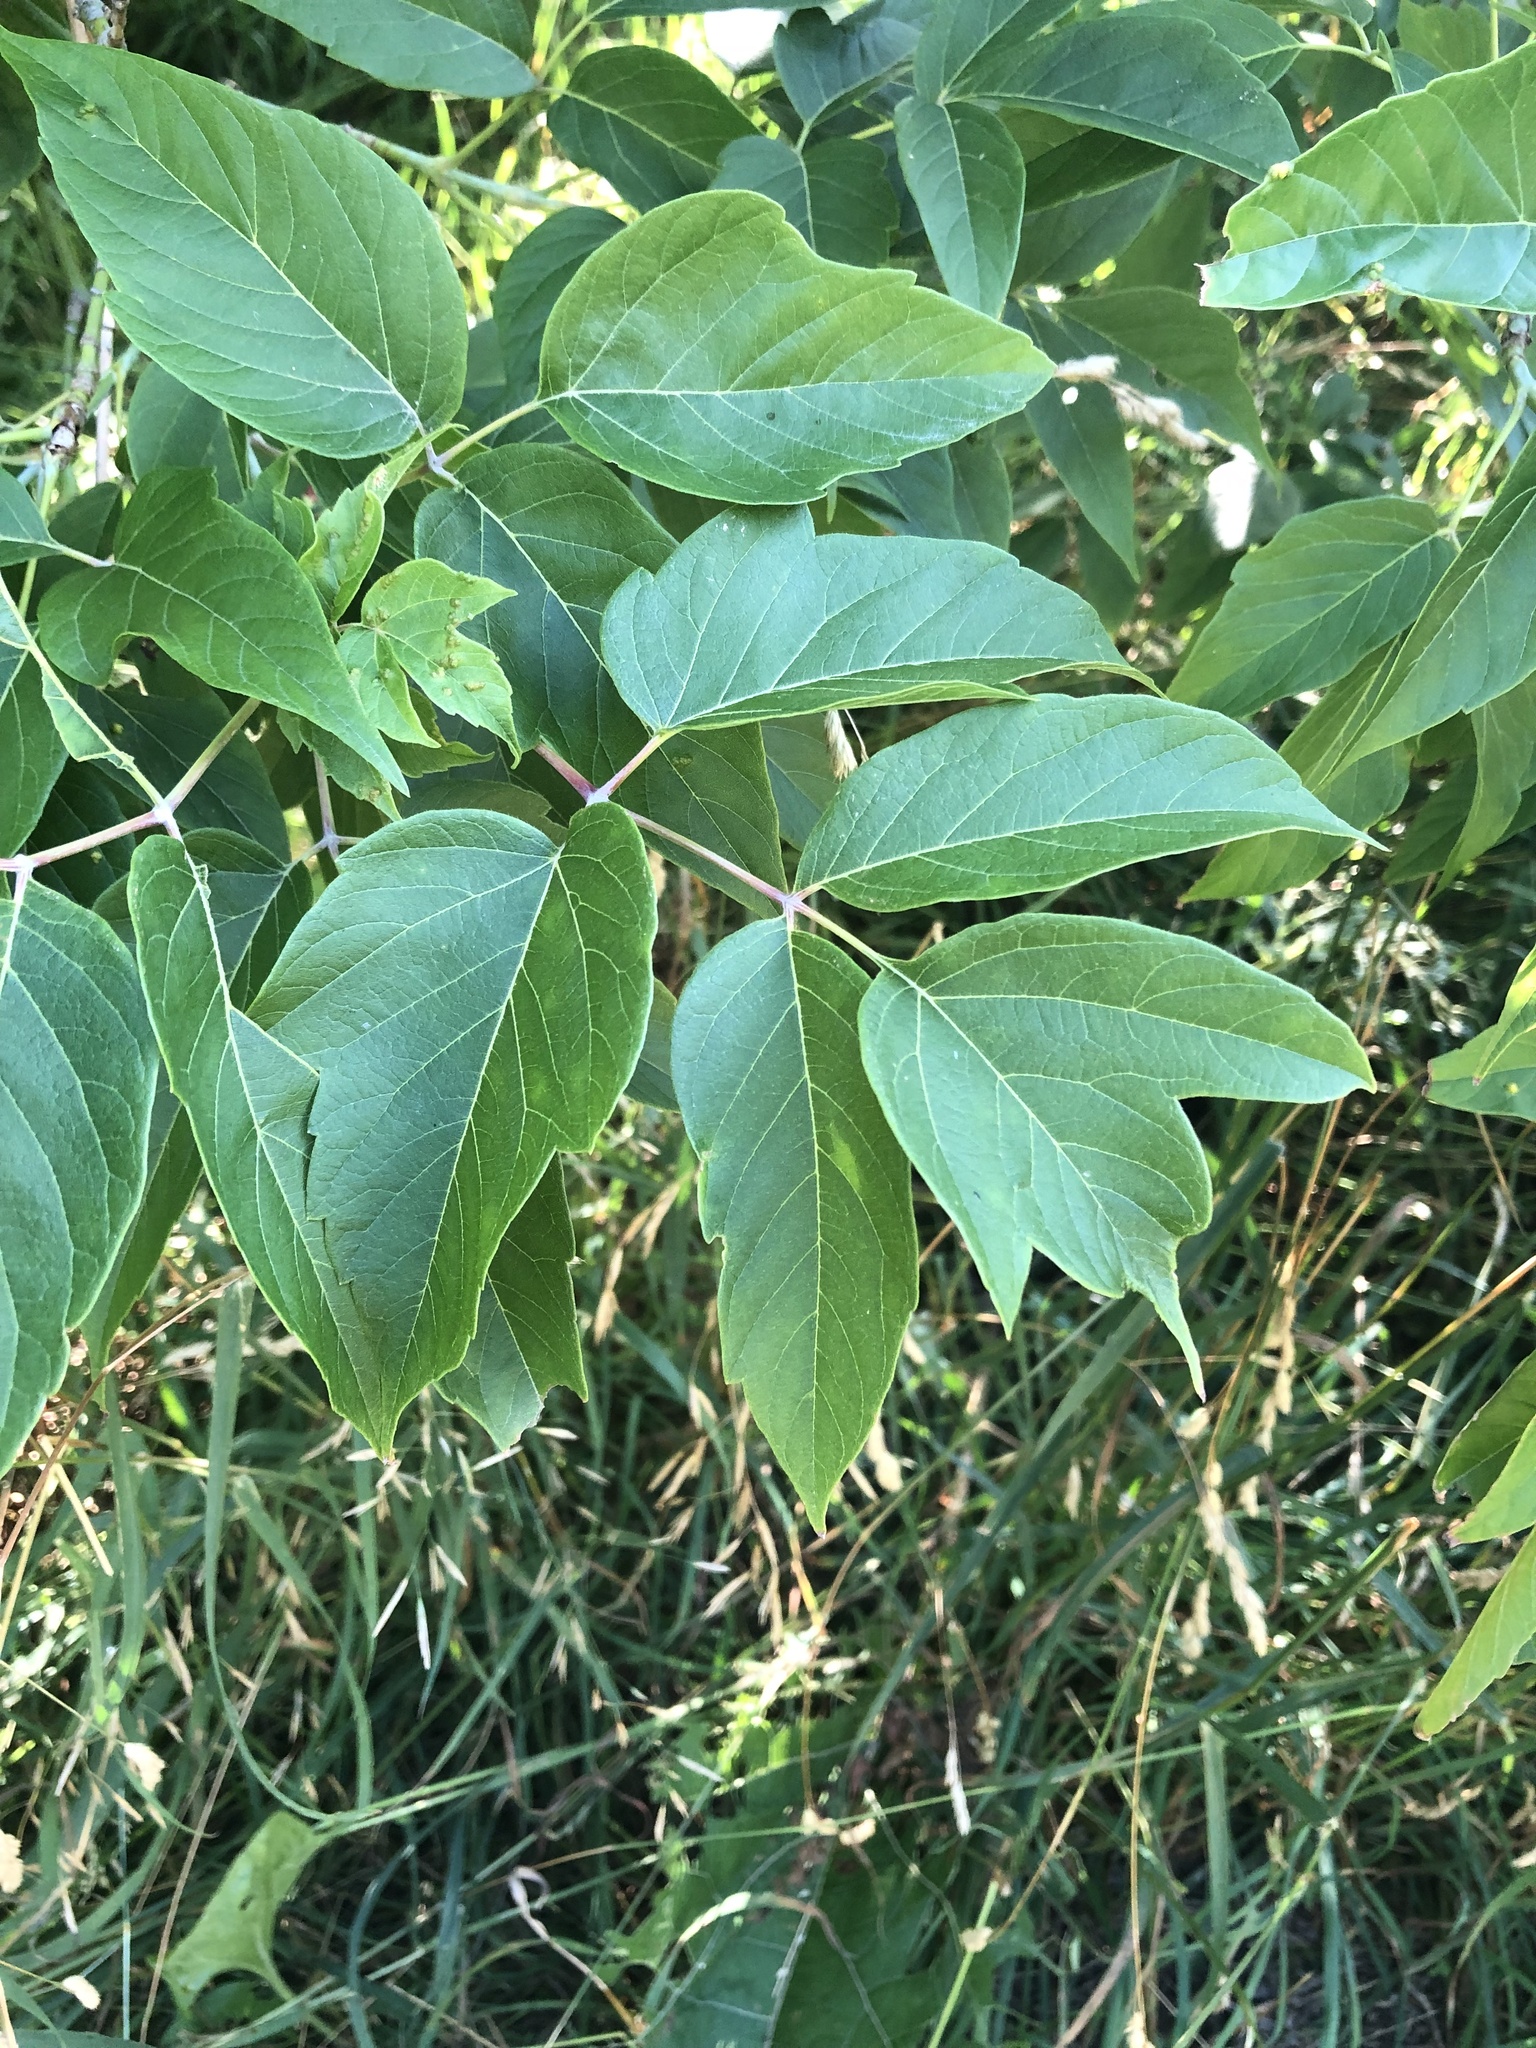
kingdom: Plantae
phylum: Tracheophyta
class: Magnoliopsida
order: Sapindales
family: Sapindaceae
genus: Acer
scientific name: Acer negundo
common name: Ashleaf maple
